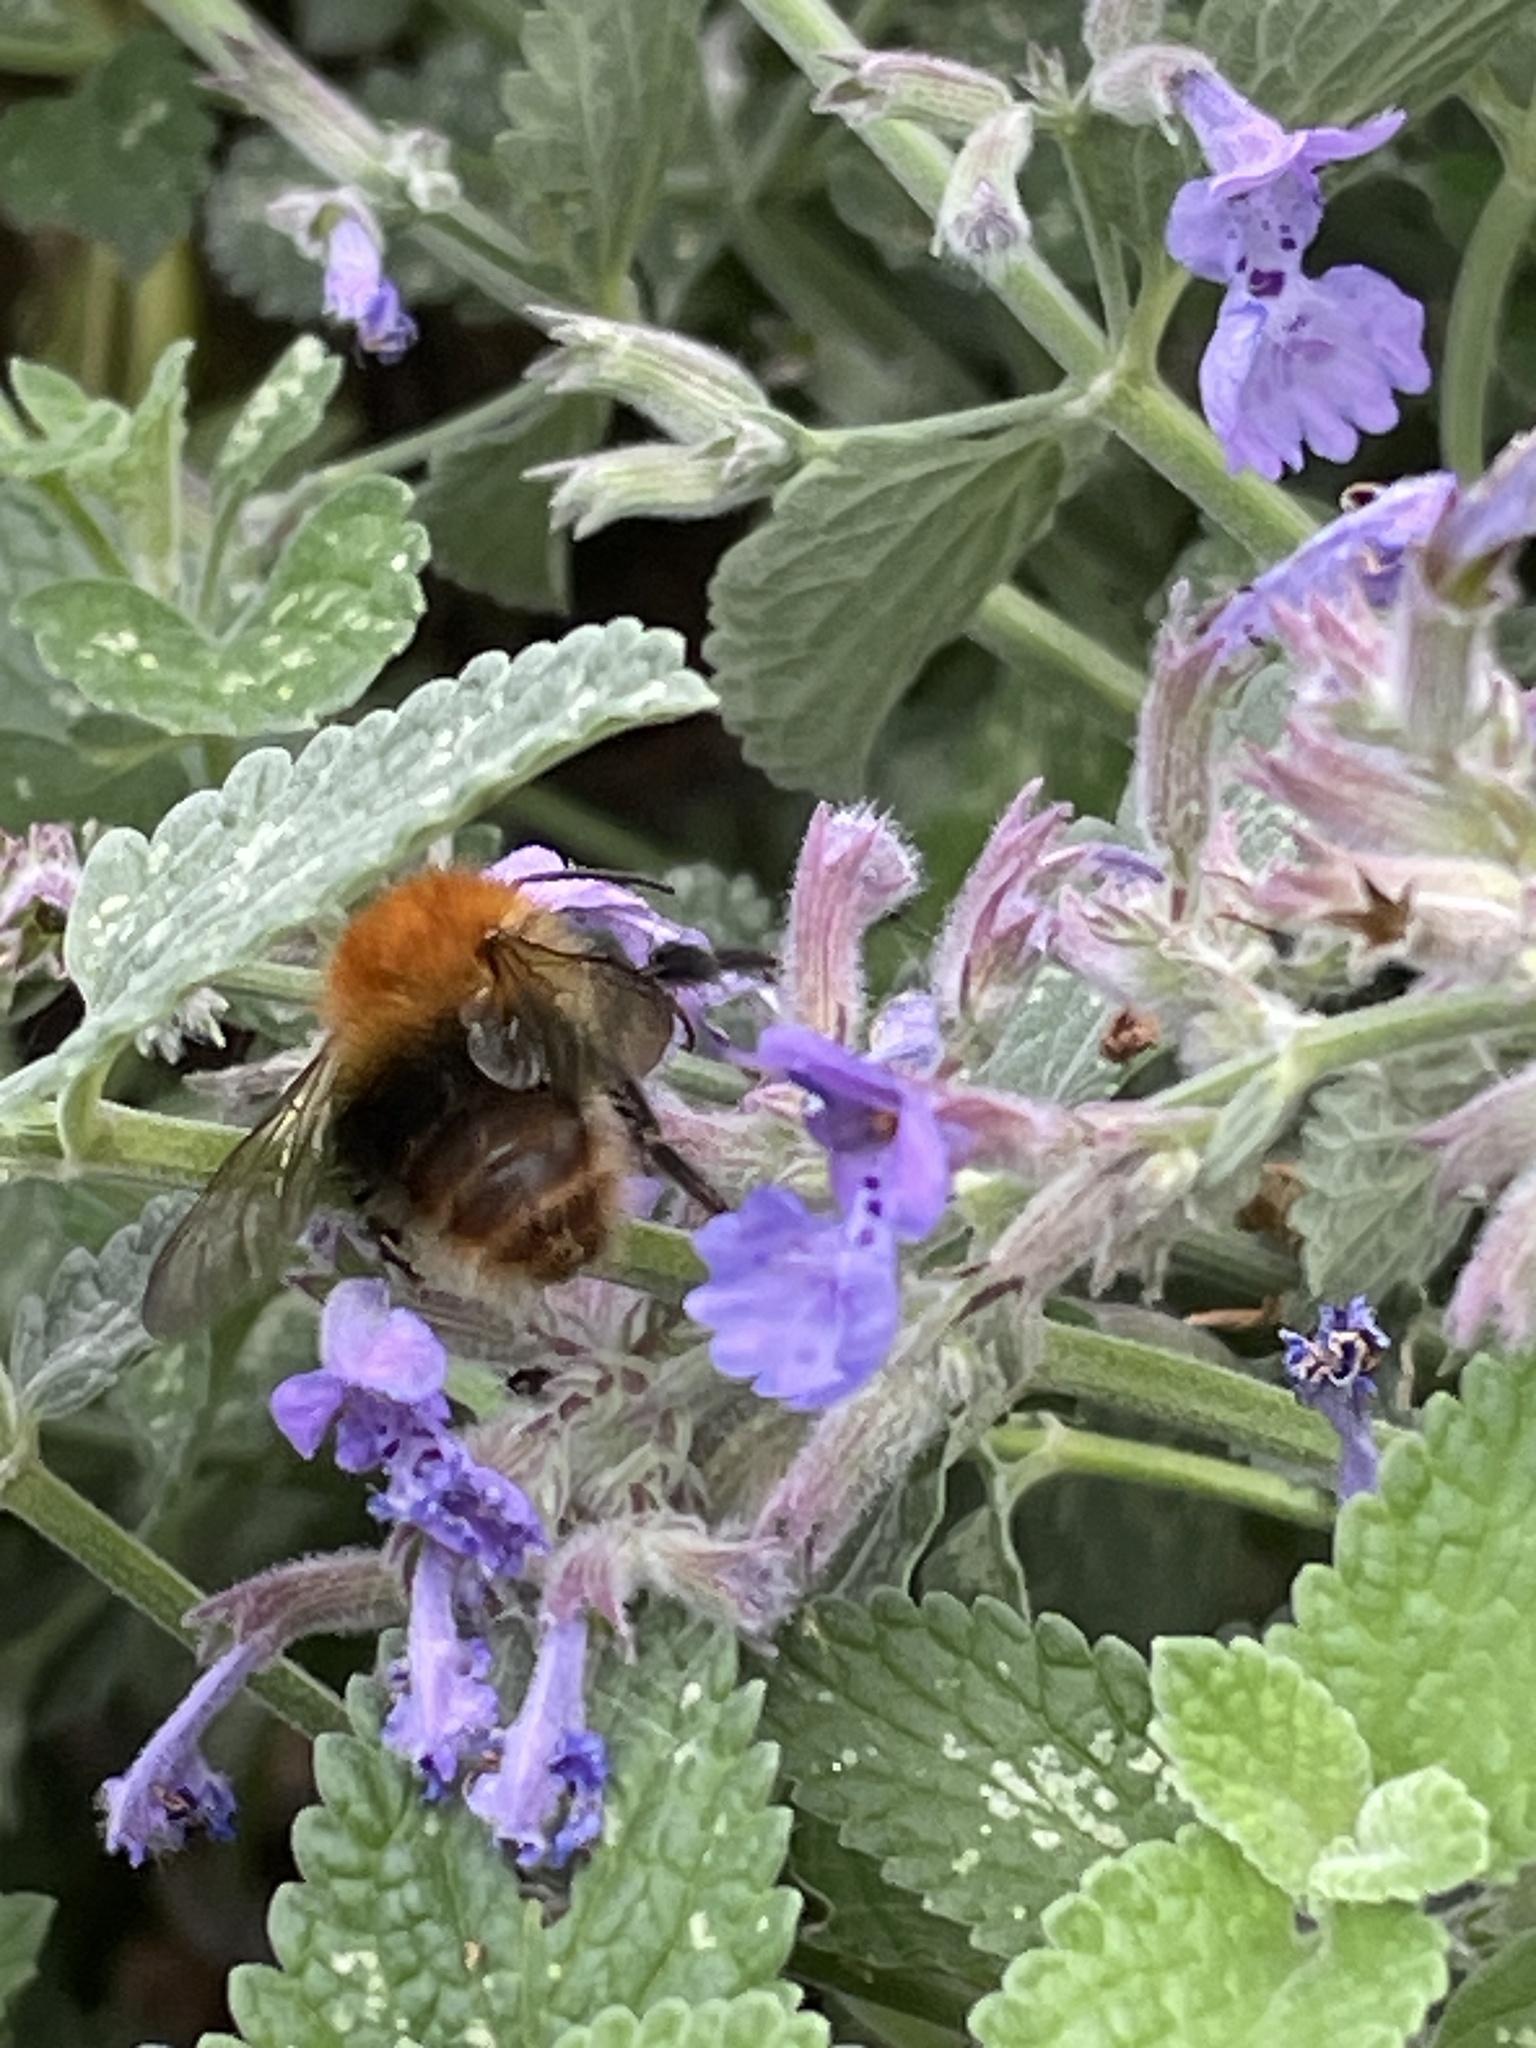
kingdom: Animalia
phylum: Arthropoda
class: Insecta
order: Hymenoptera
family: Apidae
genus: Bombus
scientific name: Bombus pascuorum
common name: Common carder bee
